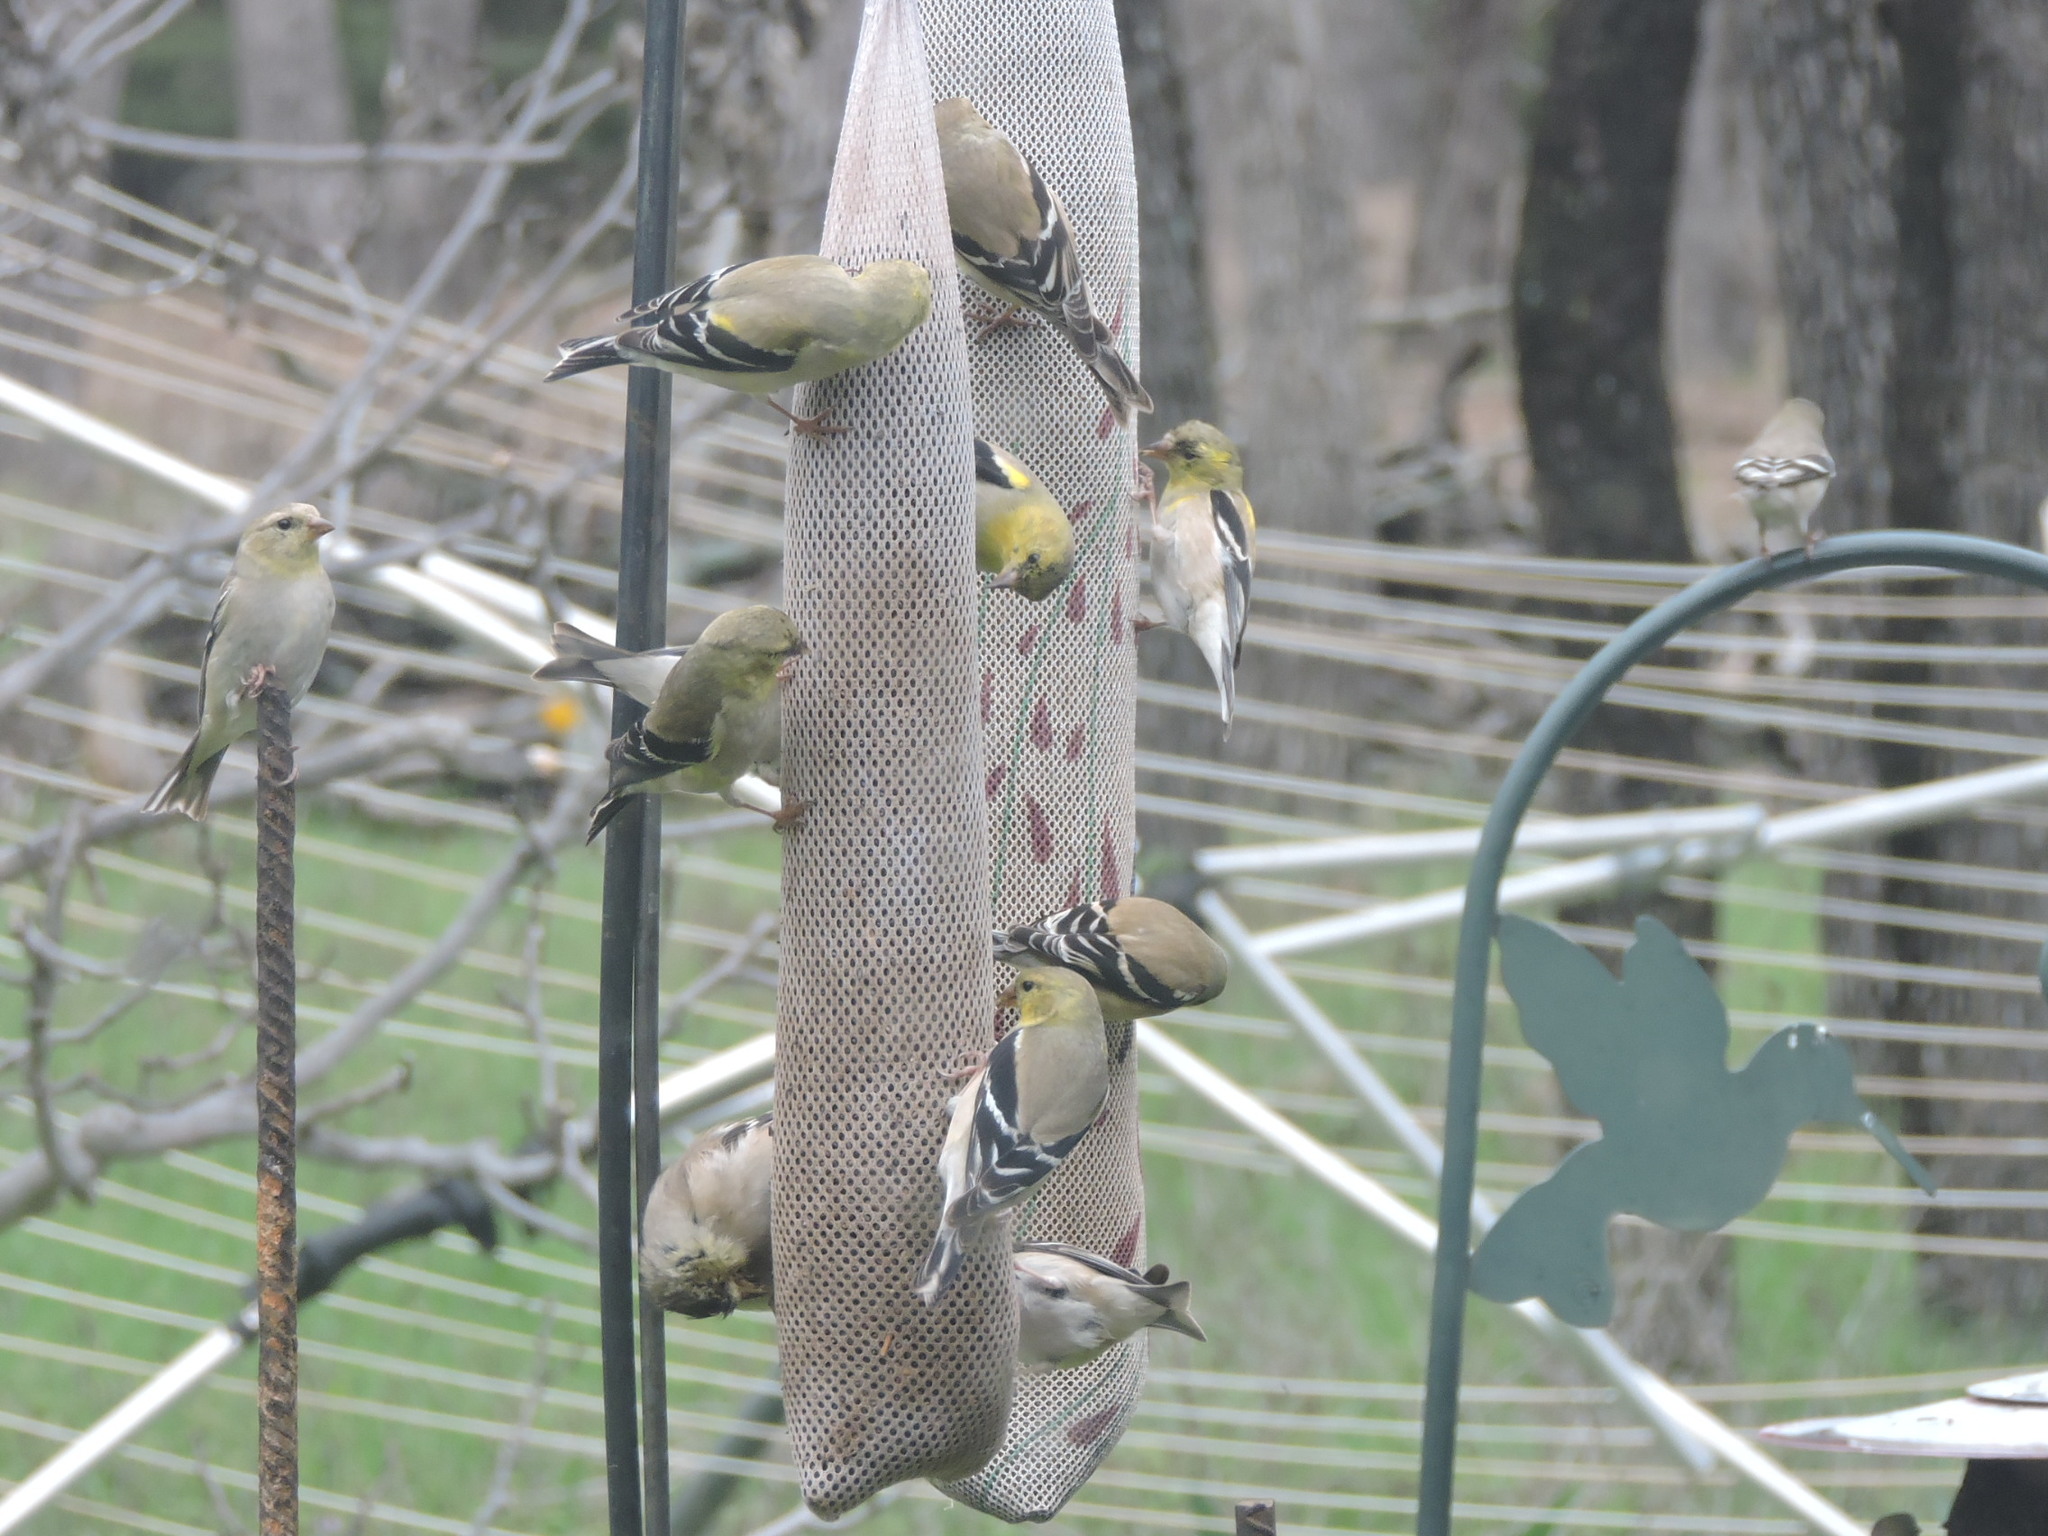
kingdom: Animalia
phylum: Chordata
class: Aves
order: Passeriformes
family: Fringillidae
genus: Spinus
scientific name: Spinus tristis
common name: American goldfinch
